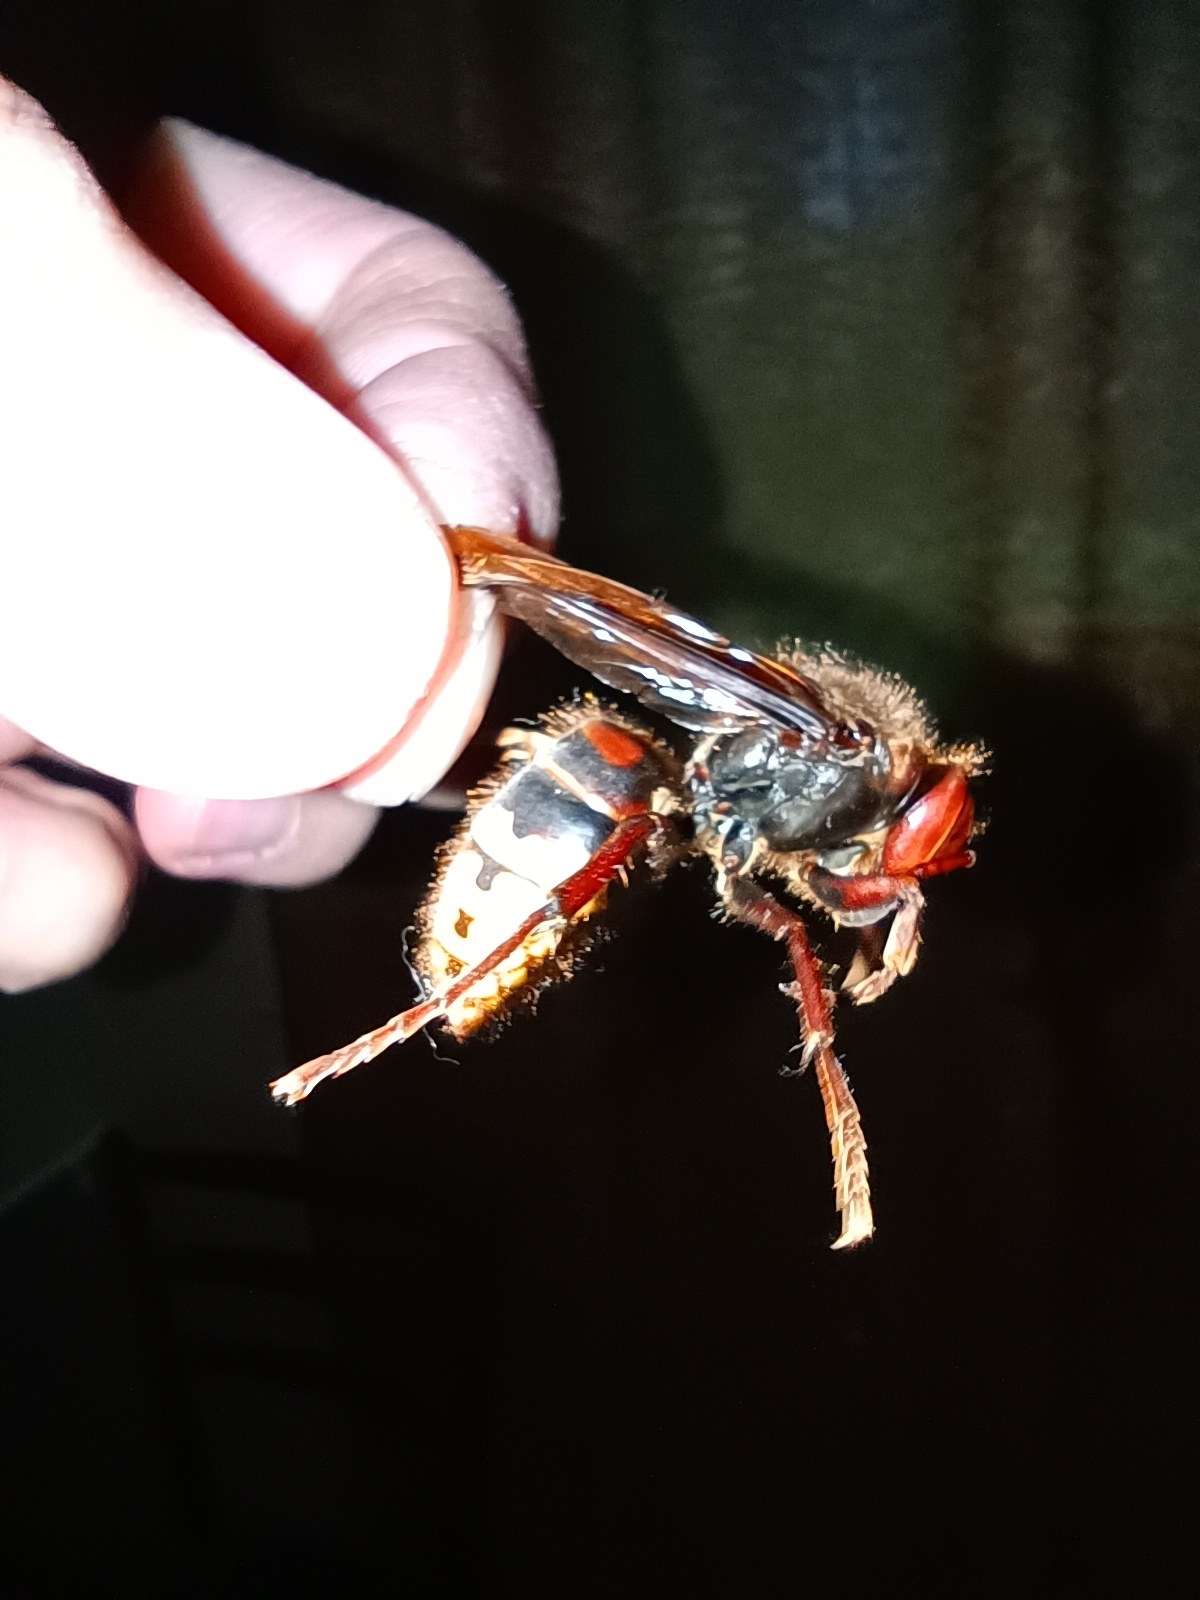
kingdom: Animalia
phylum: Arthropoda
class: Insecta
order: Hymenoptera
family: Vespidae
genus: Vespa
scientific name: Vespa crabro
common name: Hornet
